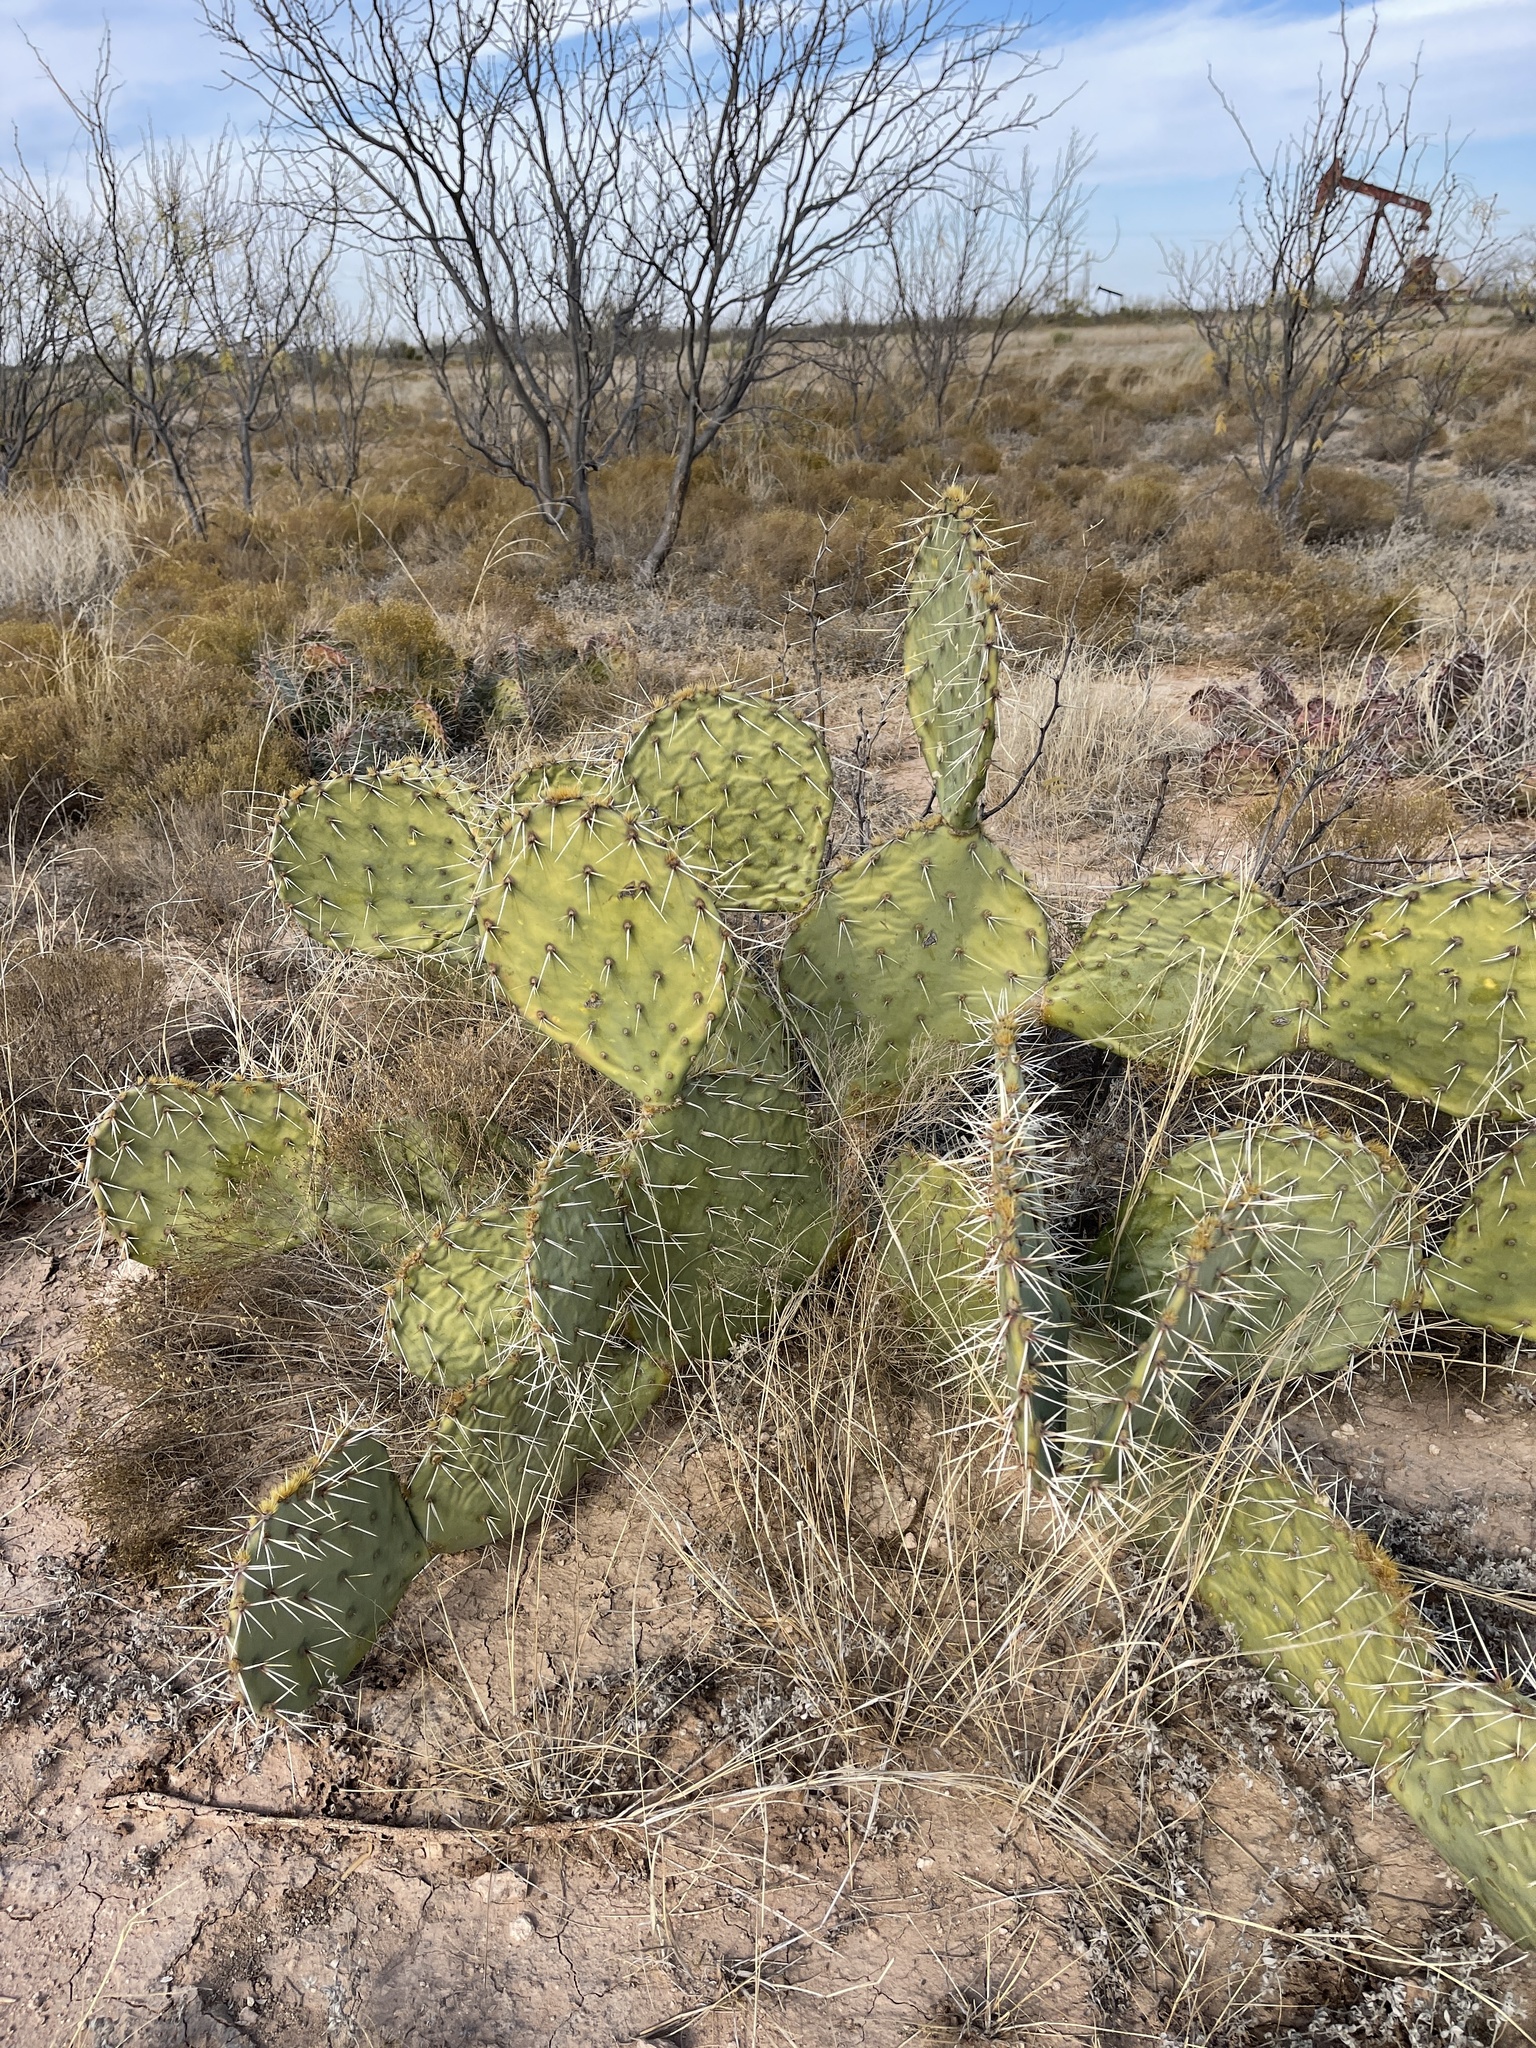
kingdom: Plantae
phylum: Tracheophyta
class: Magnoliopsida
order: Caryophyllales
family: Cactaceae
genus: Opuntia
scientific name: Opuntia engelmannii
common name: Cactus-apple
